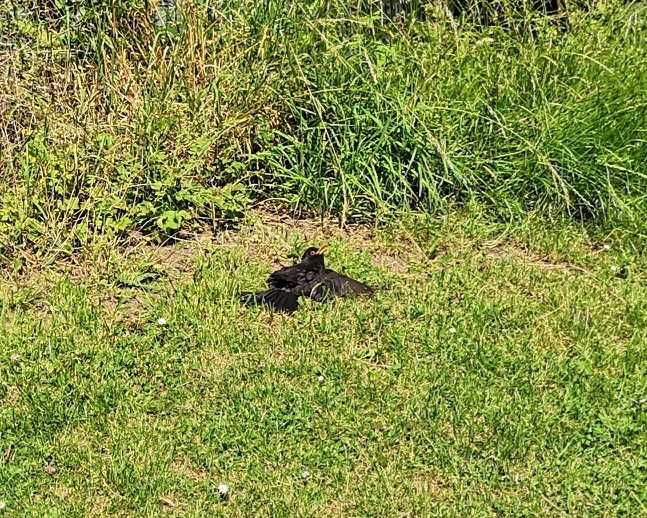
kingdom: Animalia
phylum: Chordata
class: Aves
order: Passeriformes
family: Turdidae
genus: Turdus
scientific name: Turdus merula
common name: Common blackbird
